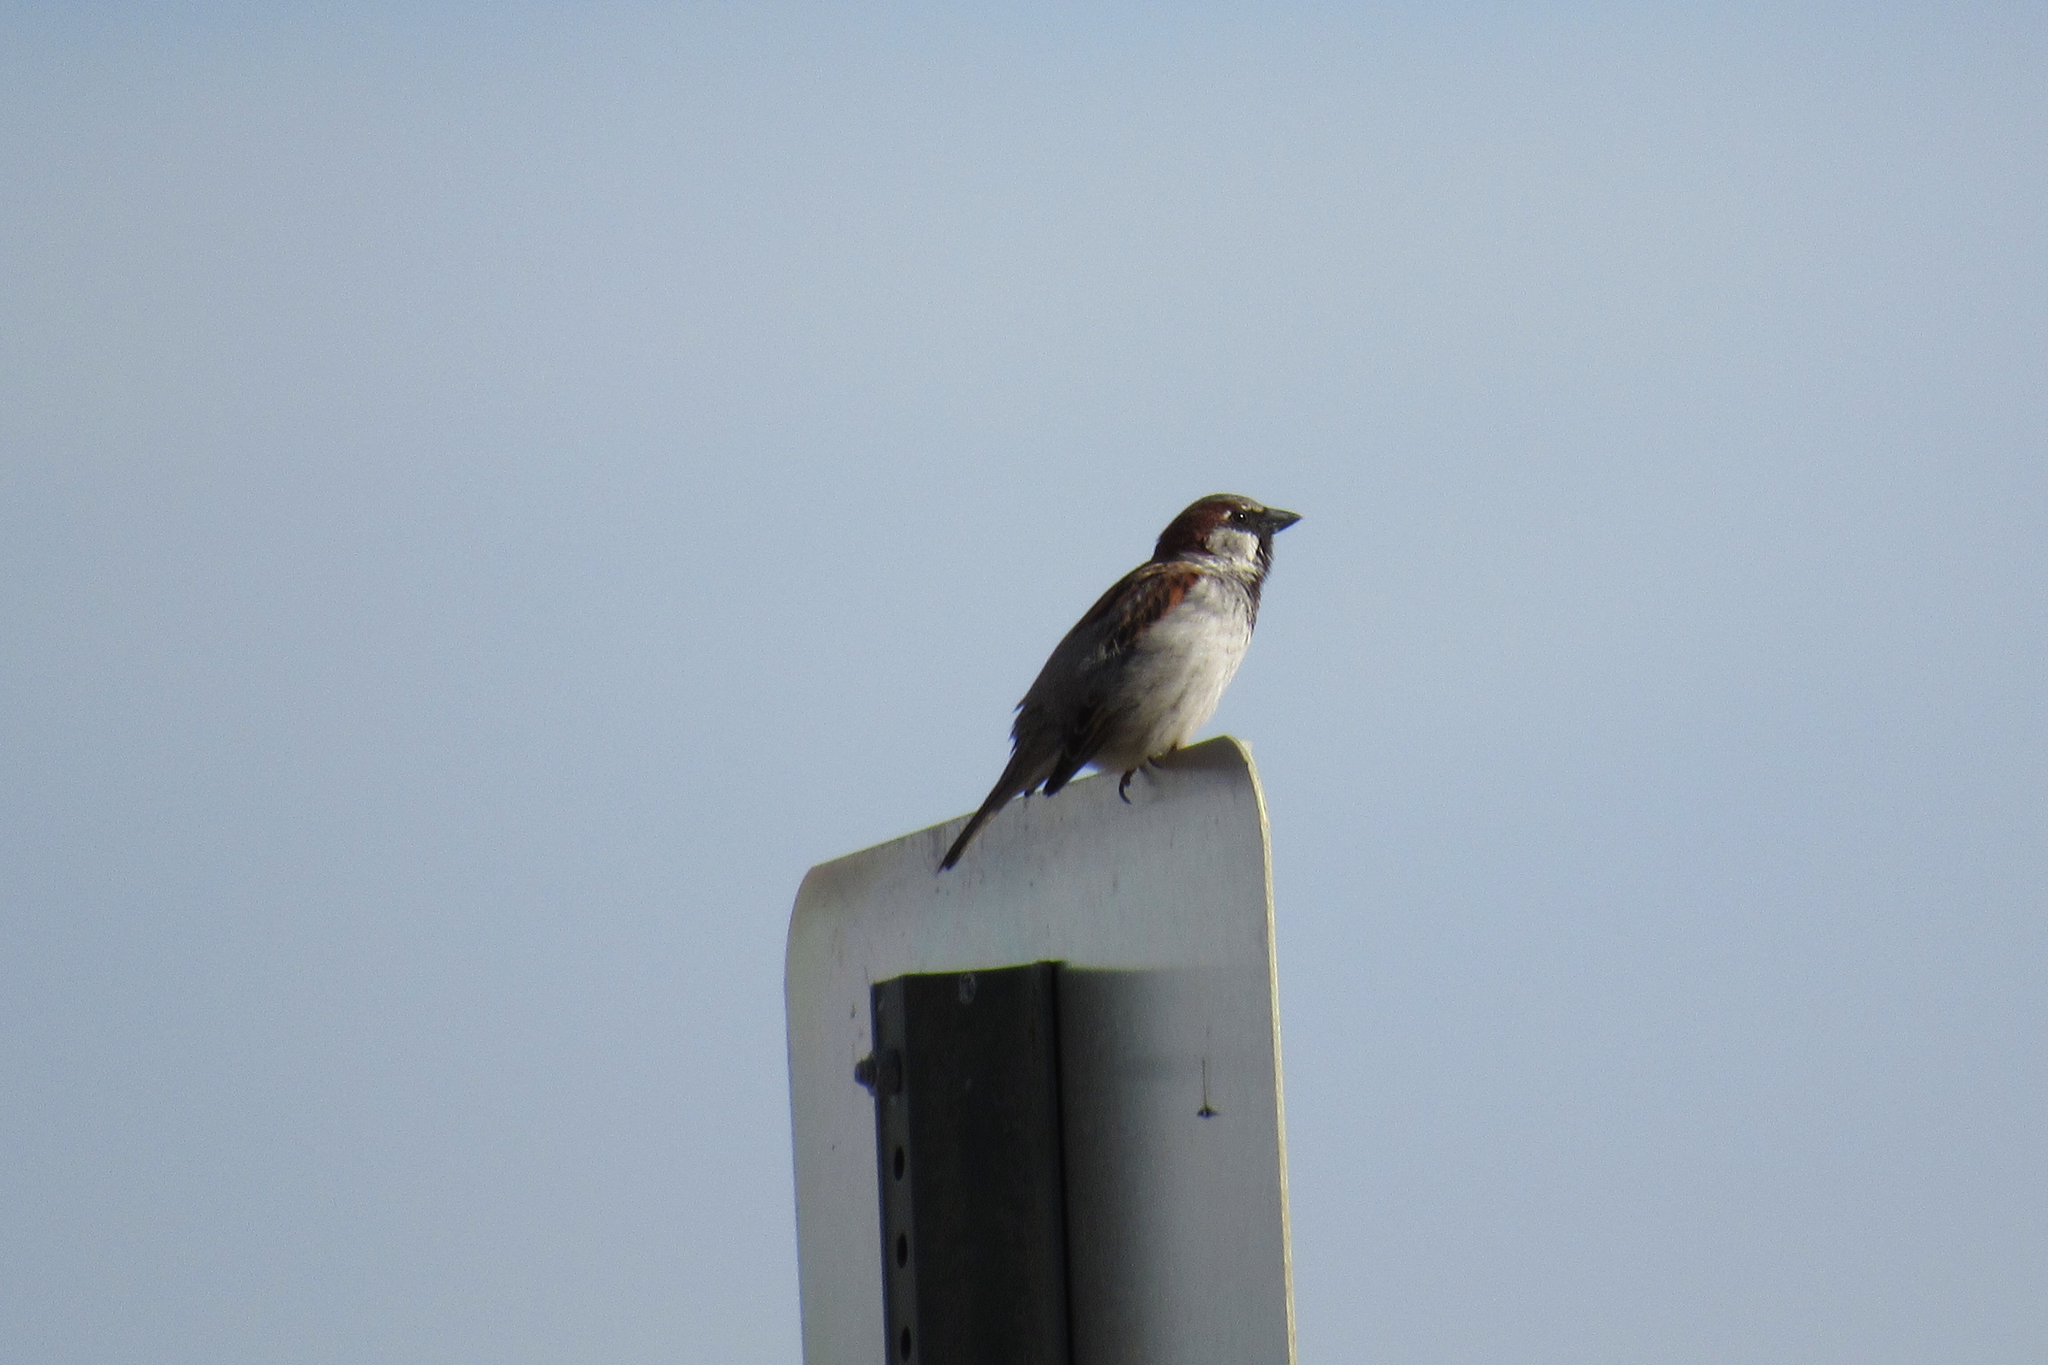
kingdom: Animalia
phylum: Chordata
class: Aves
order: Passeriformes
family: Passeridae
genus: Passer
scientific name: Passer domesticus
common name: House sparrow
